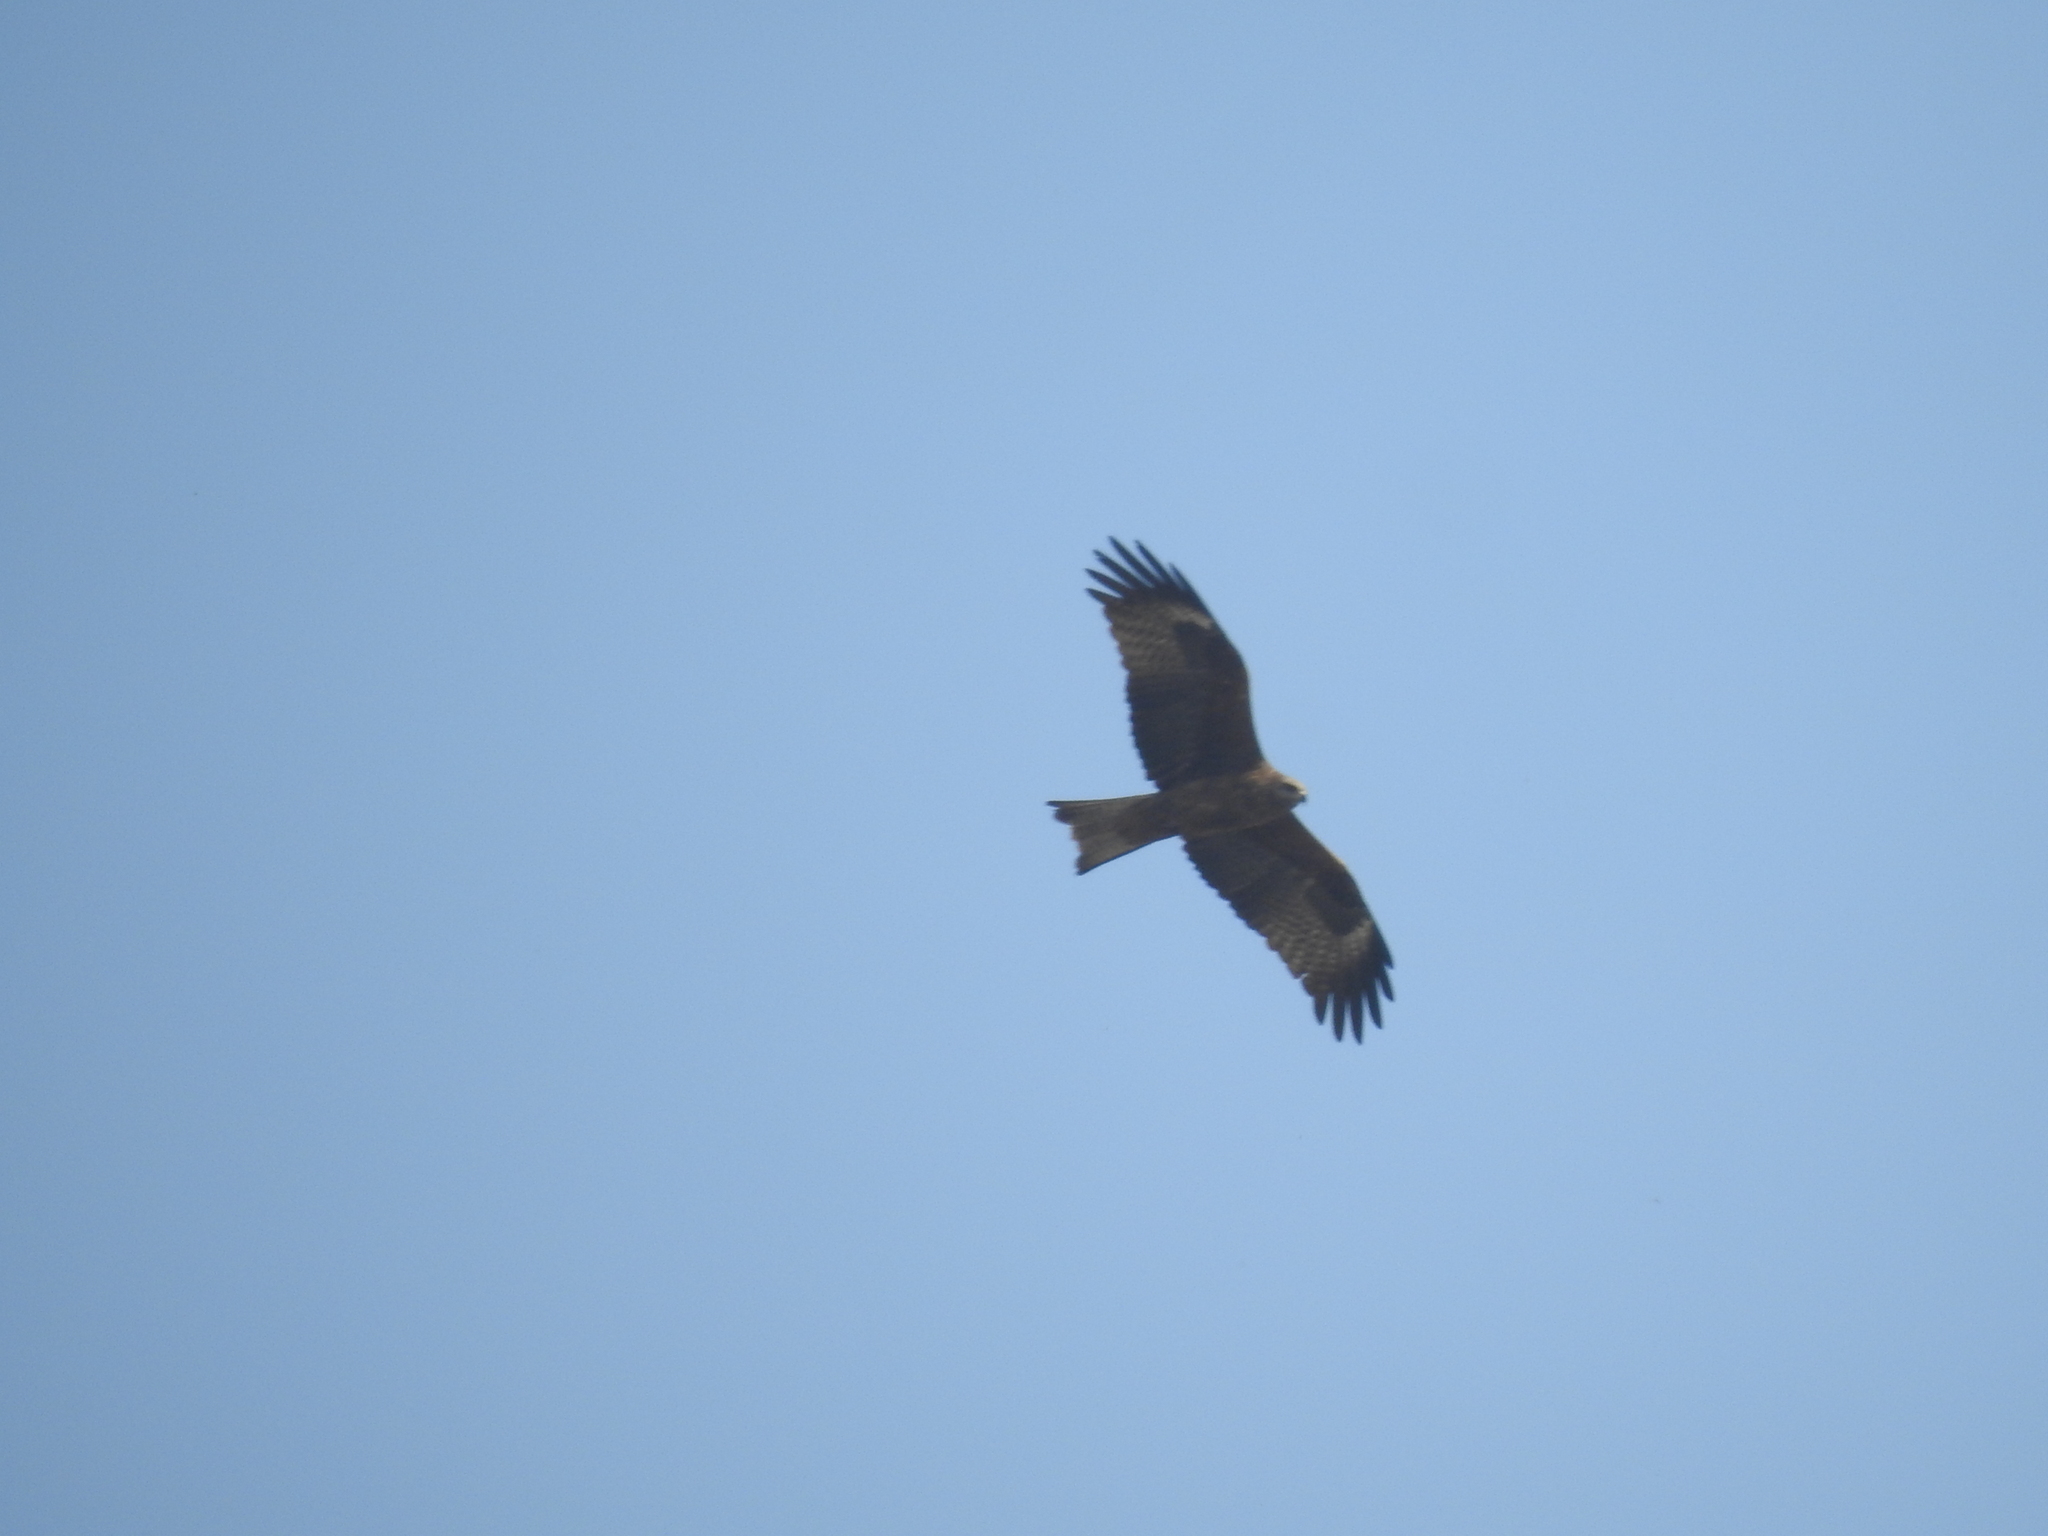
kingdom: Animalia
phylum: Chordata
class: Aves
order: Accipitriformes
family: Accipitridae
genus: Milvus
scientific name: Milvus migrans
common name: Black kite
